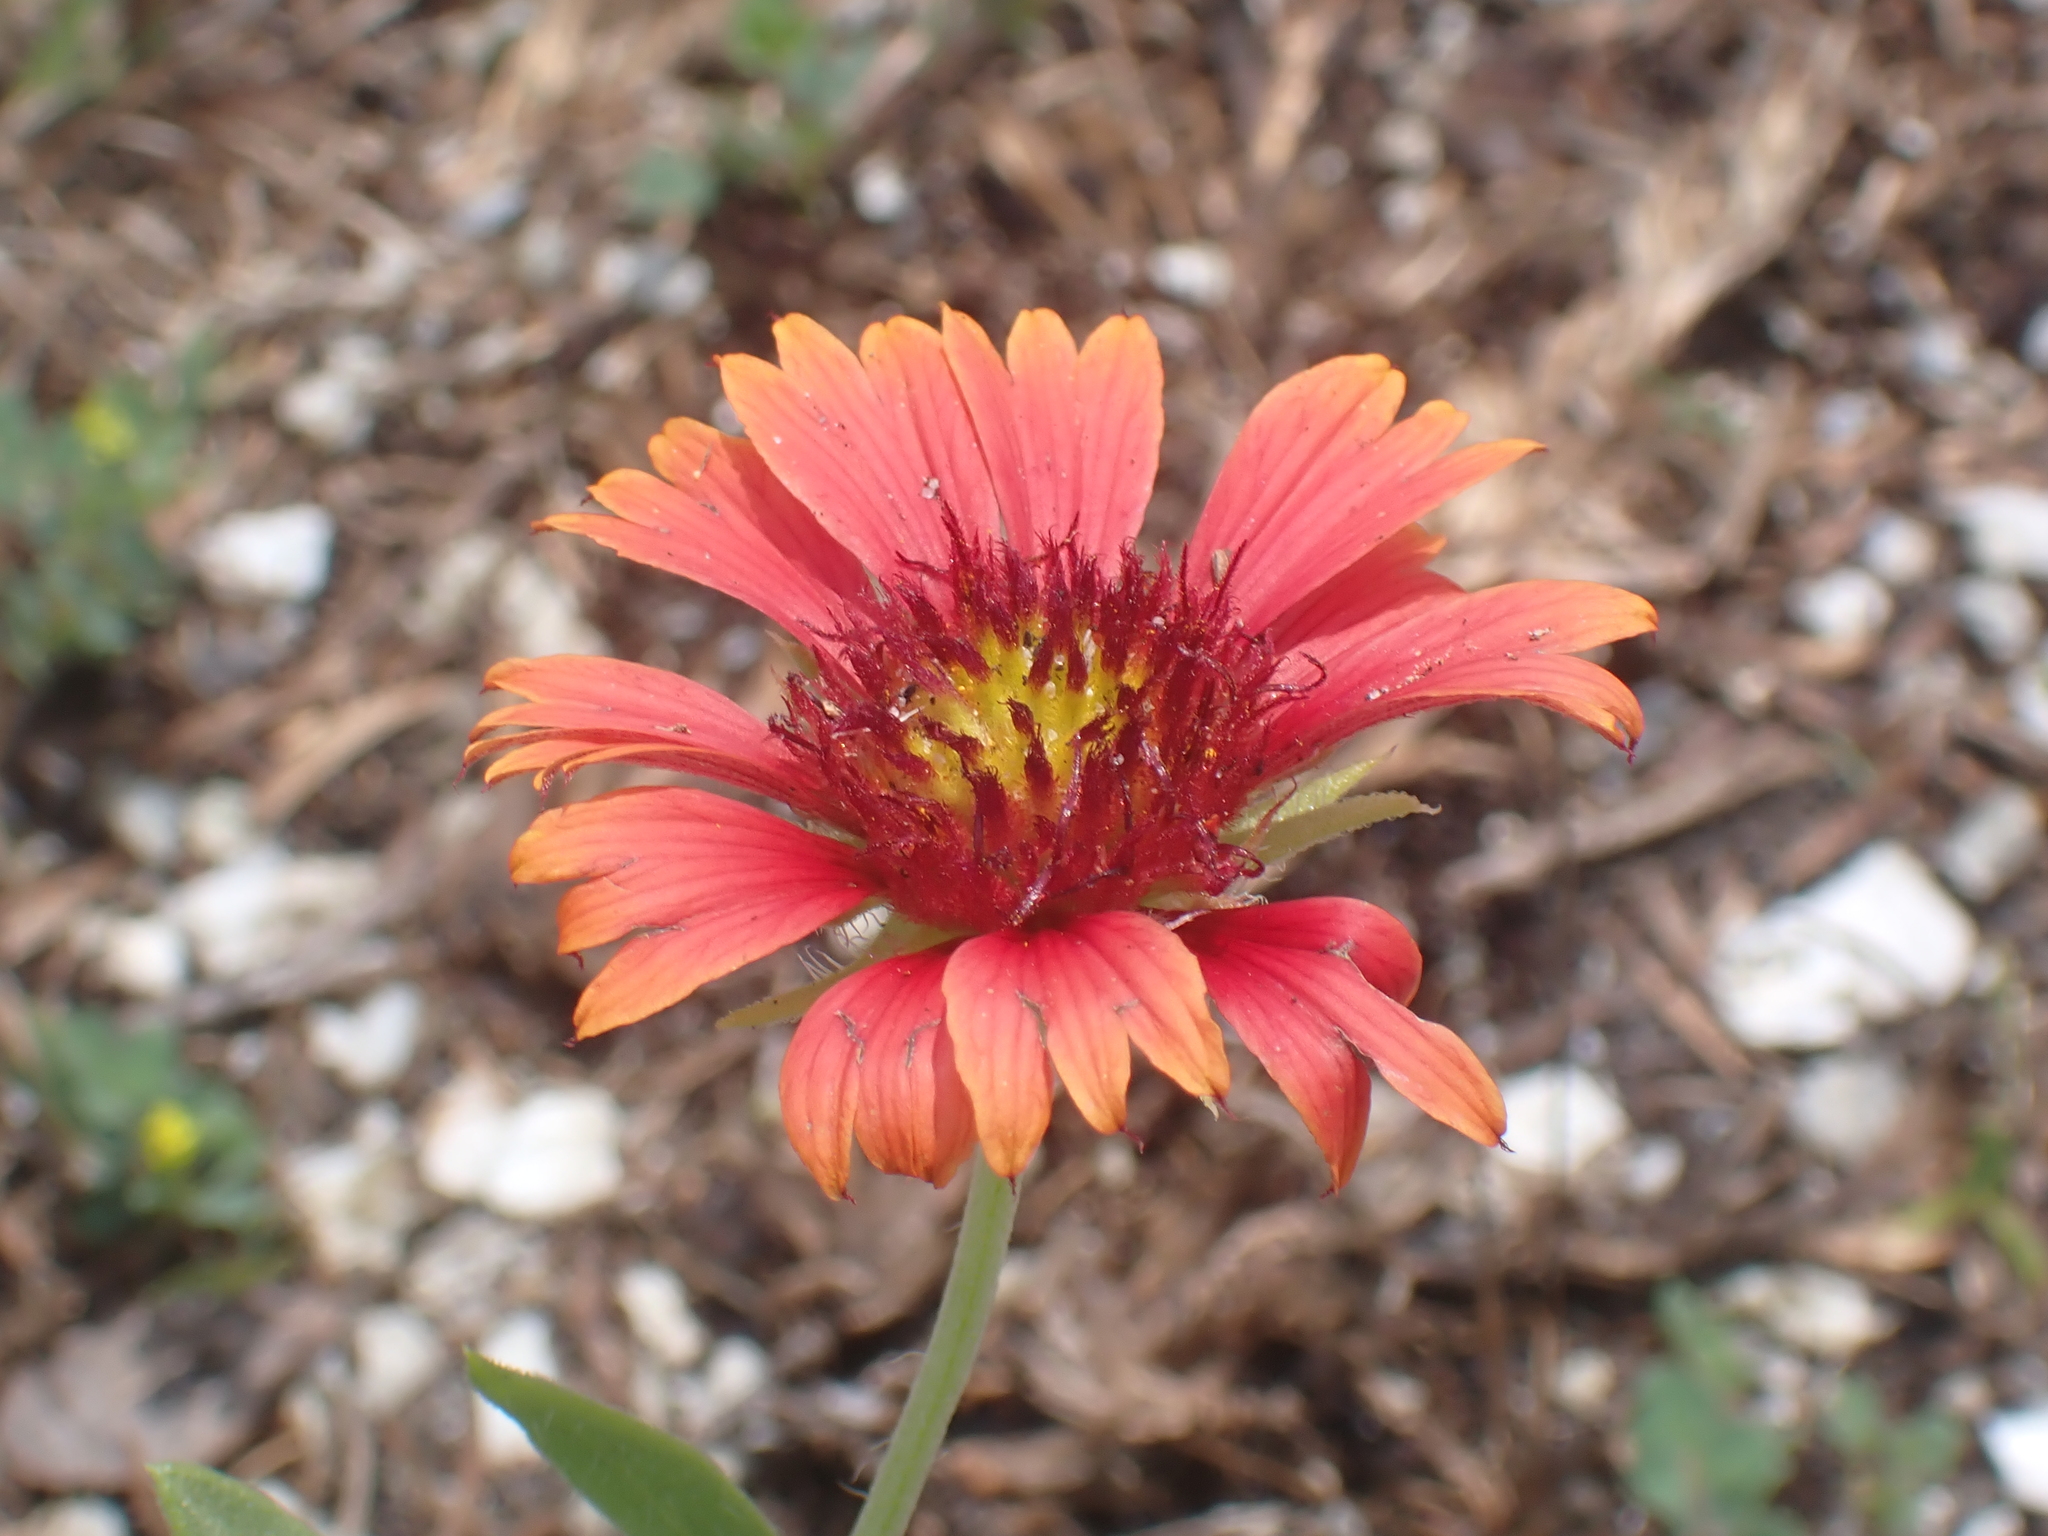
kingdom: Plantae
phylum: Tracheophyta
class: Magnoliopsida
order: Asterales
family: Asteraceae
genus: Gaillardia
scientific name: Gaillardia pulchella
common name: Firewheel
